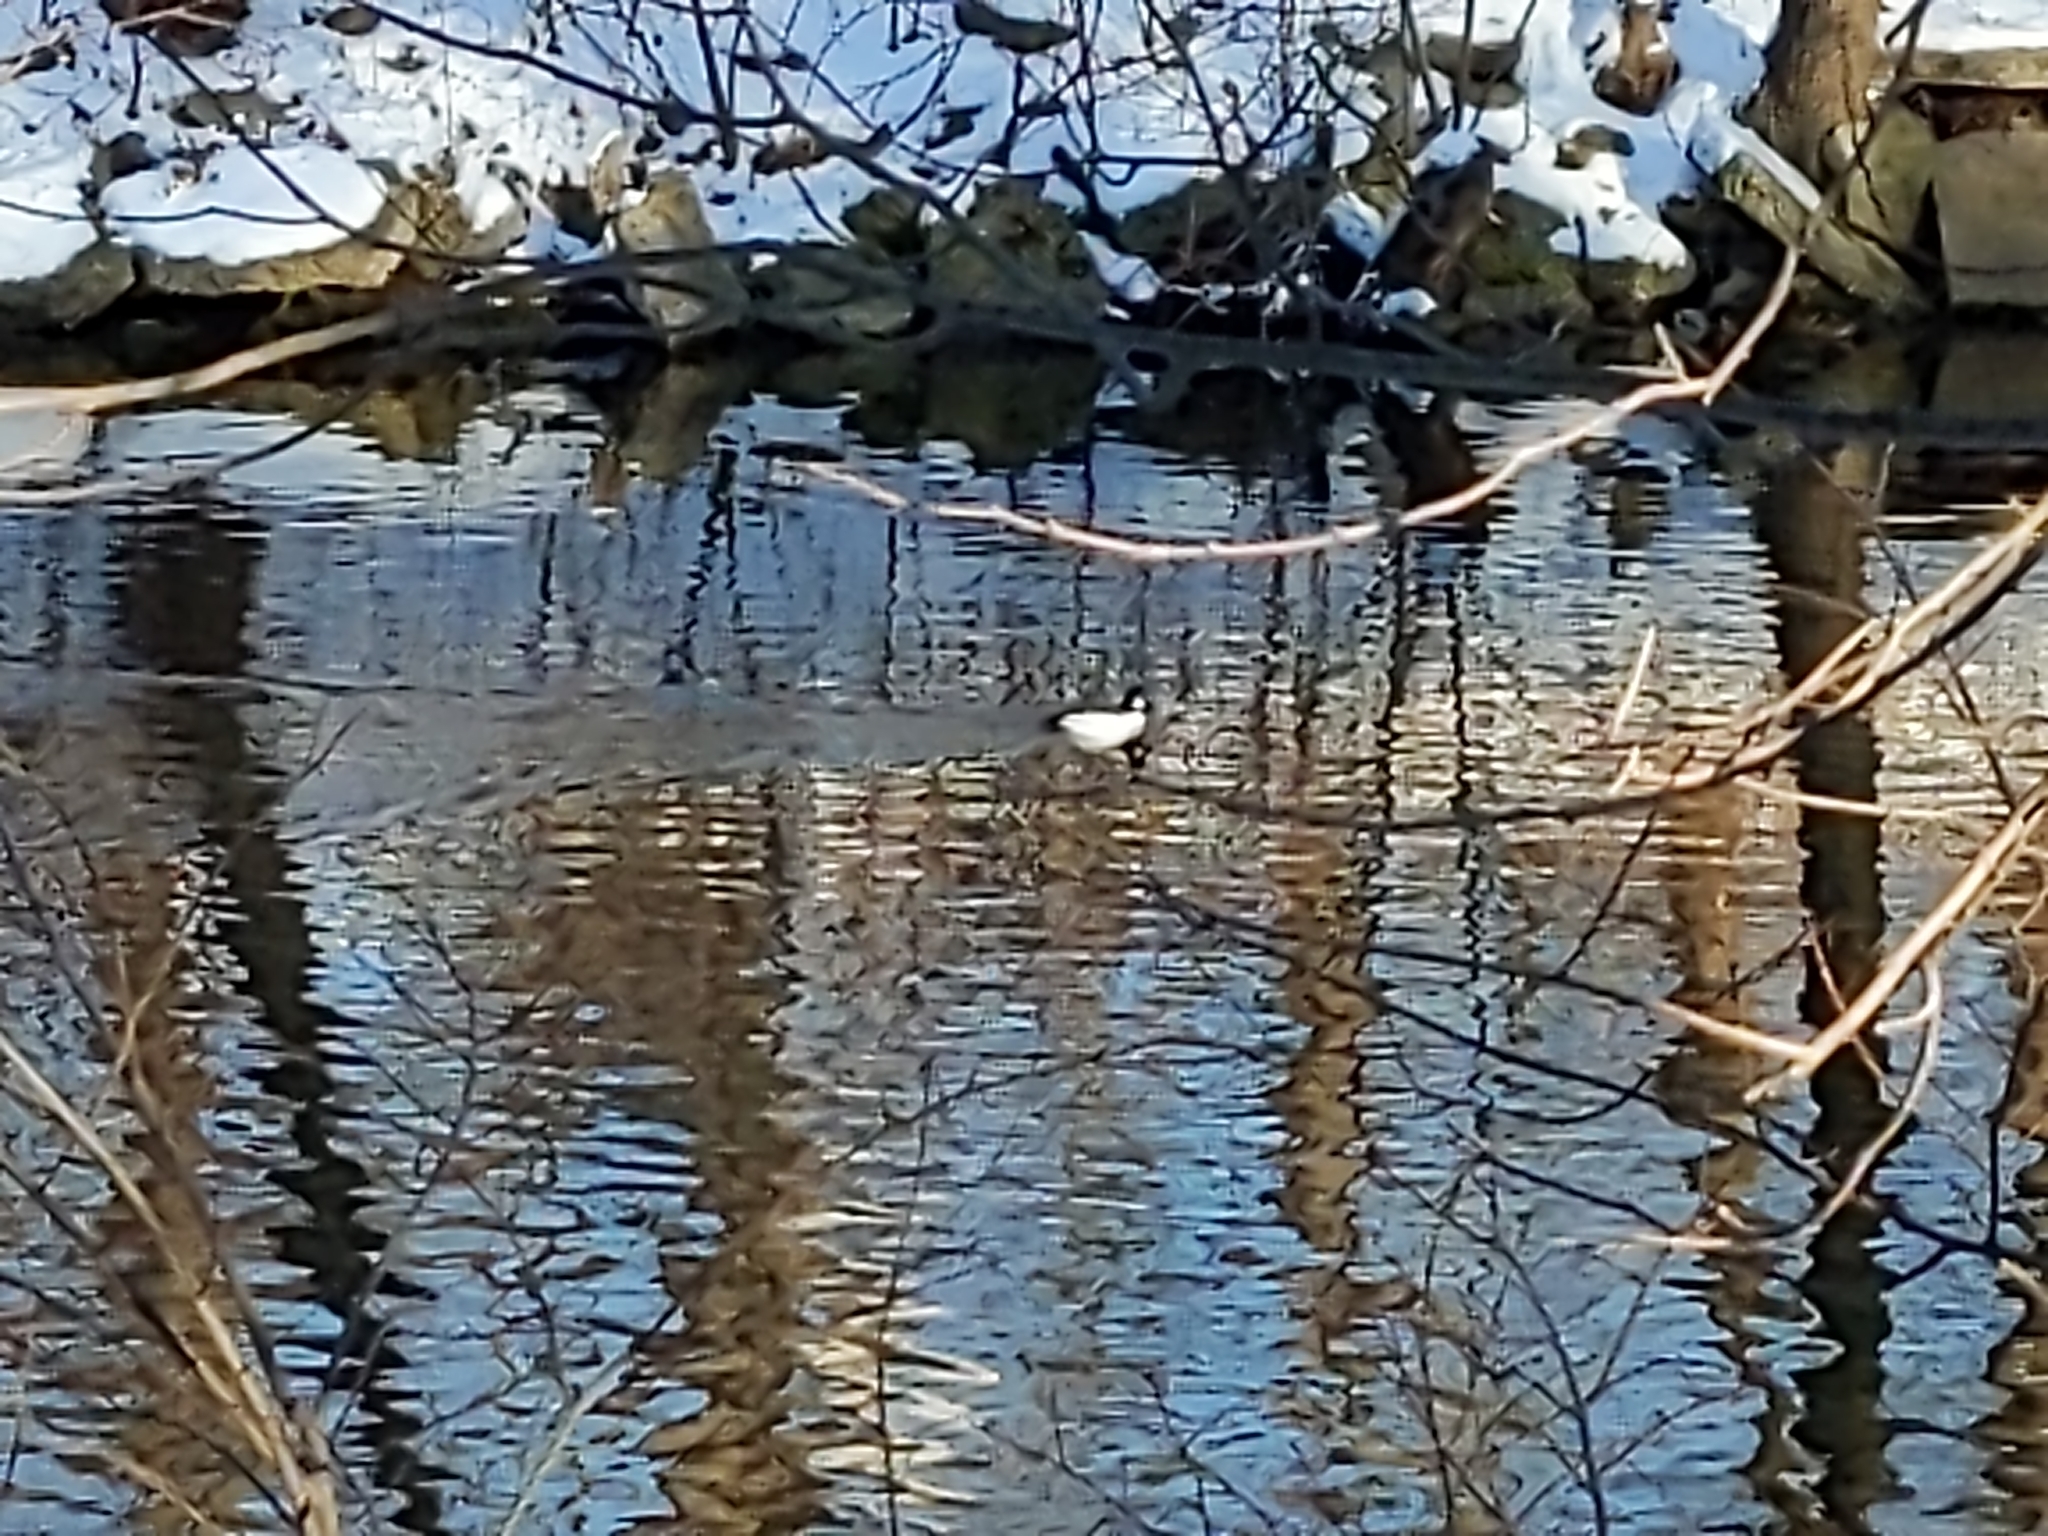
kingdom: Animalia
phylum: Chordata
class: Aves
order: Anseriformes
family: Anatidae
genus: Bucephala
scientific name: Bucephala clangula
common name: Common goldeneye
